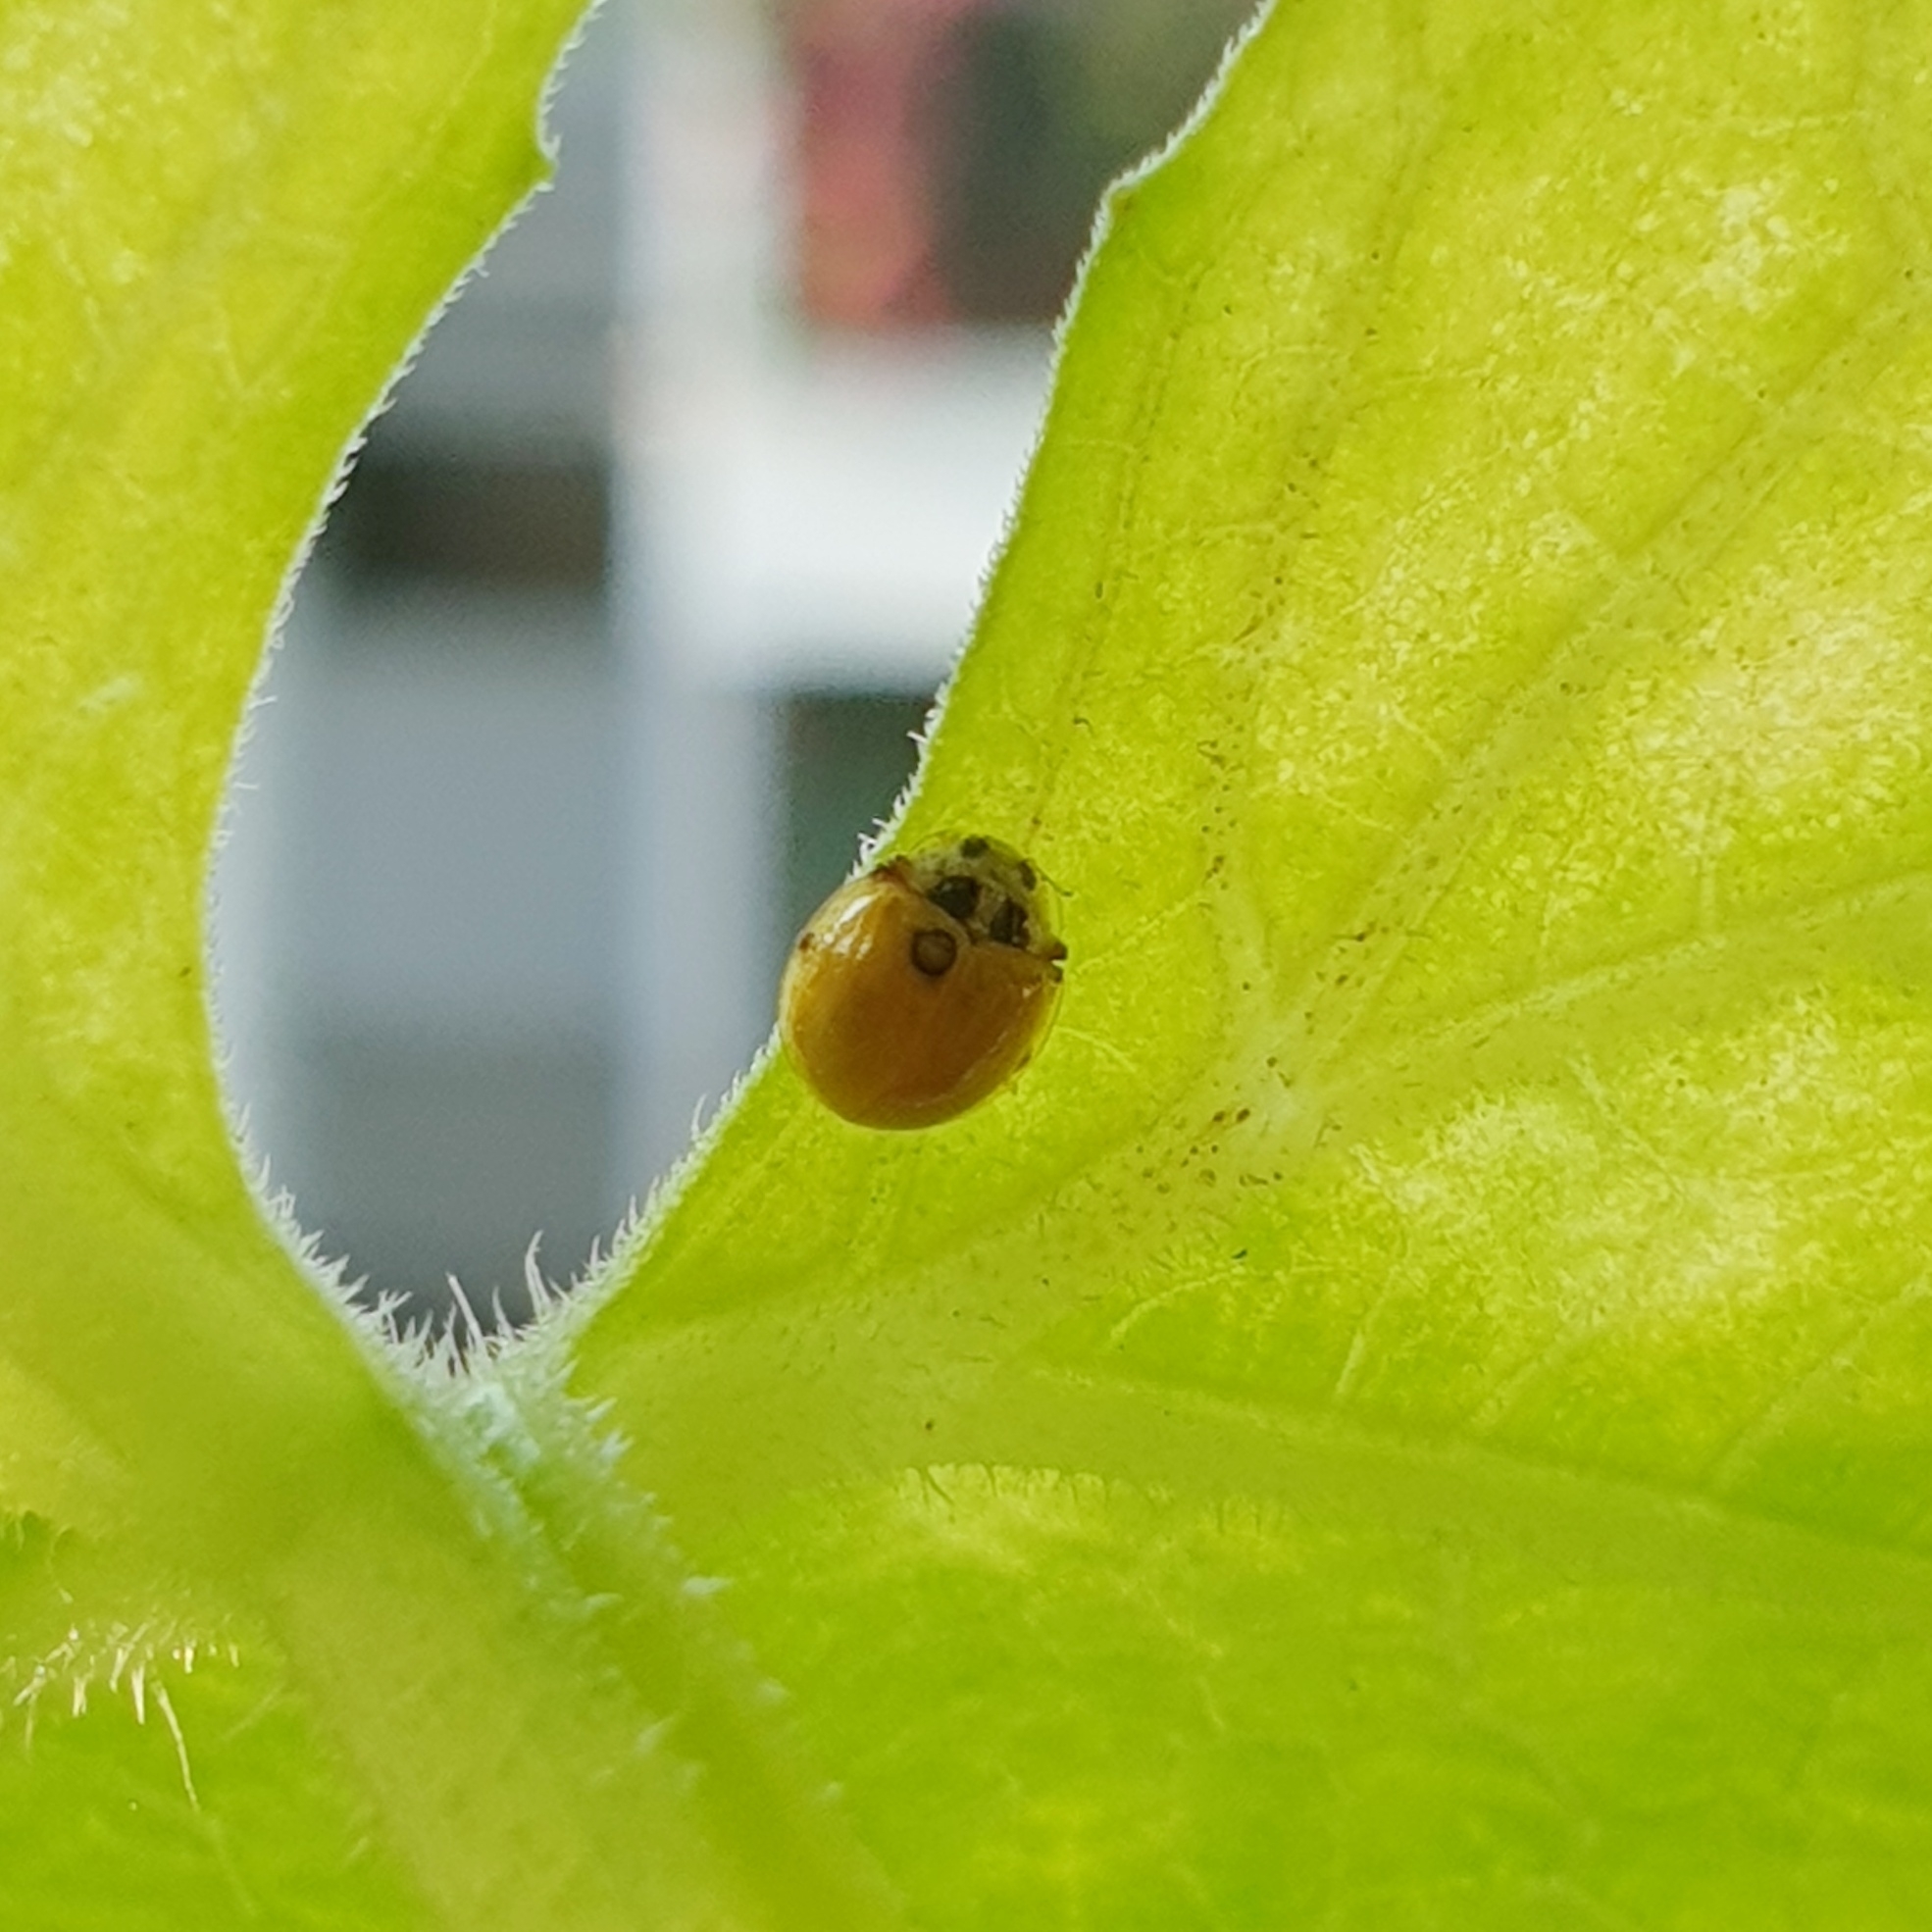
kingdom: Animalia
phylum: Arthropoda
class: Insecta
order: Coleoptera
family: Coccinellidae
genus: Illeis
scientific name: Illeis koebelei
